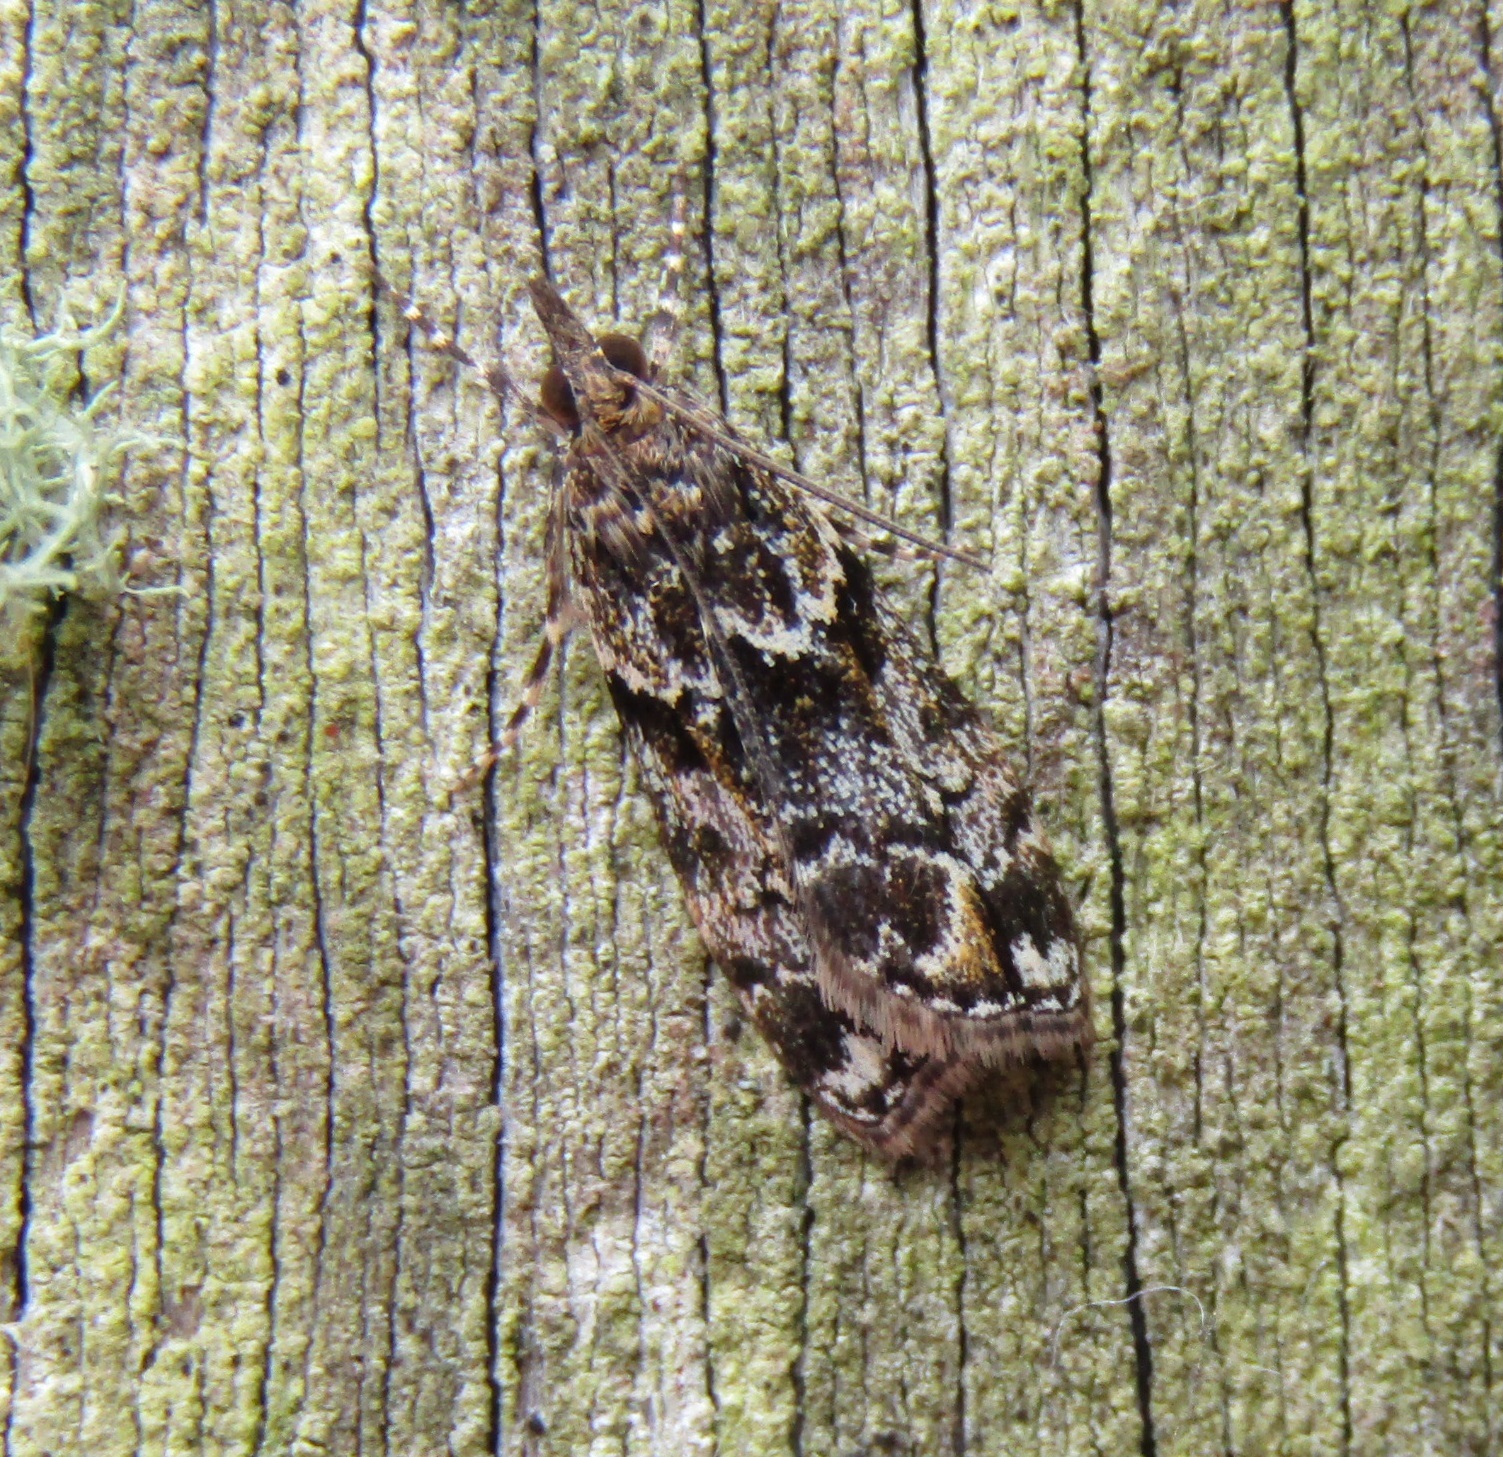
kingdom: Animalia
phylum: Arthropoda
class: Insecta
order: Lepidoptera
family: Crambidae
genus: Eudonia
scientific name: Eudonia minualis
